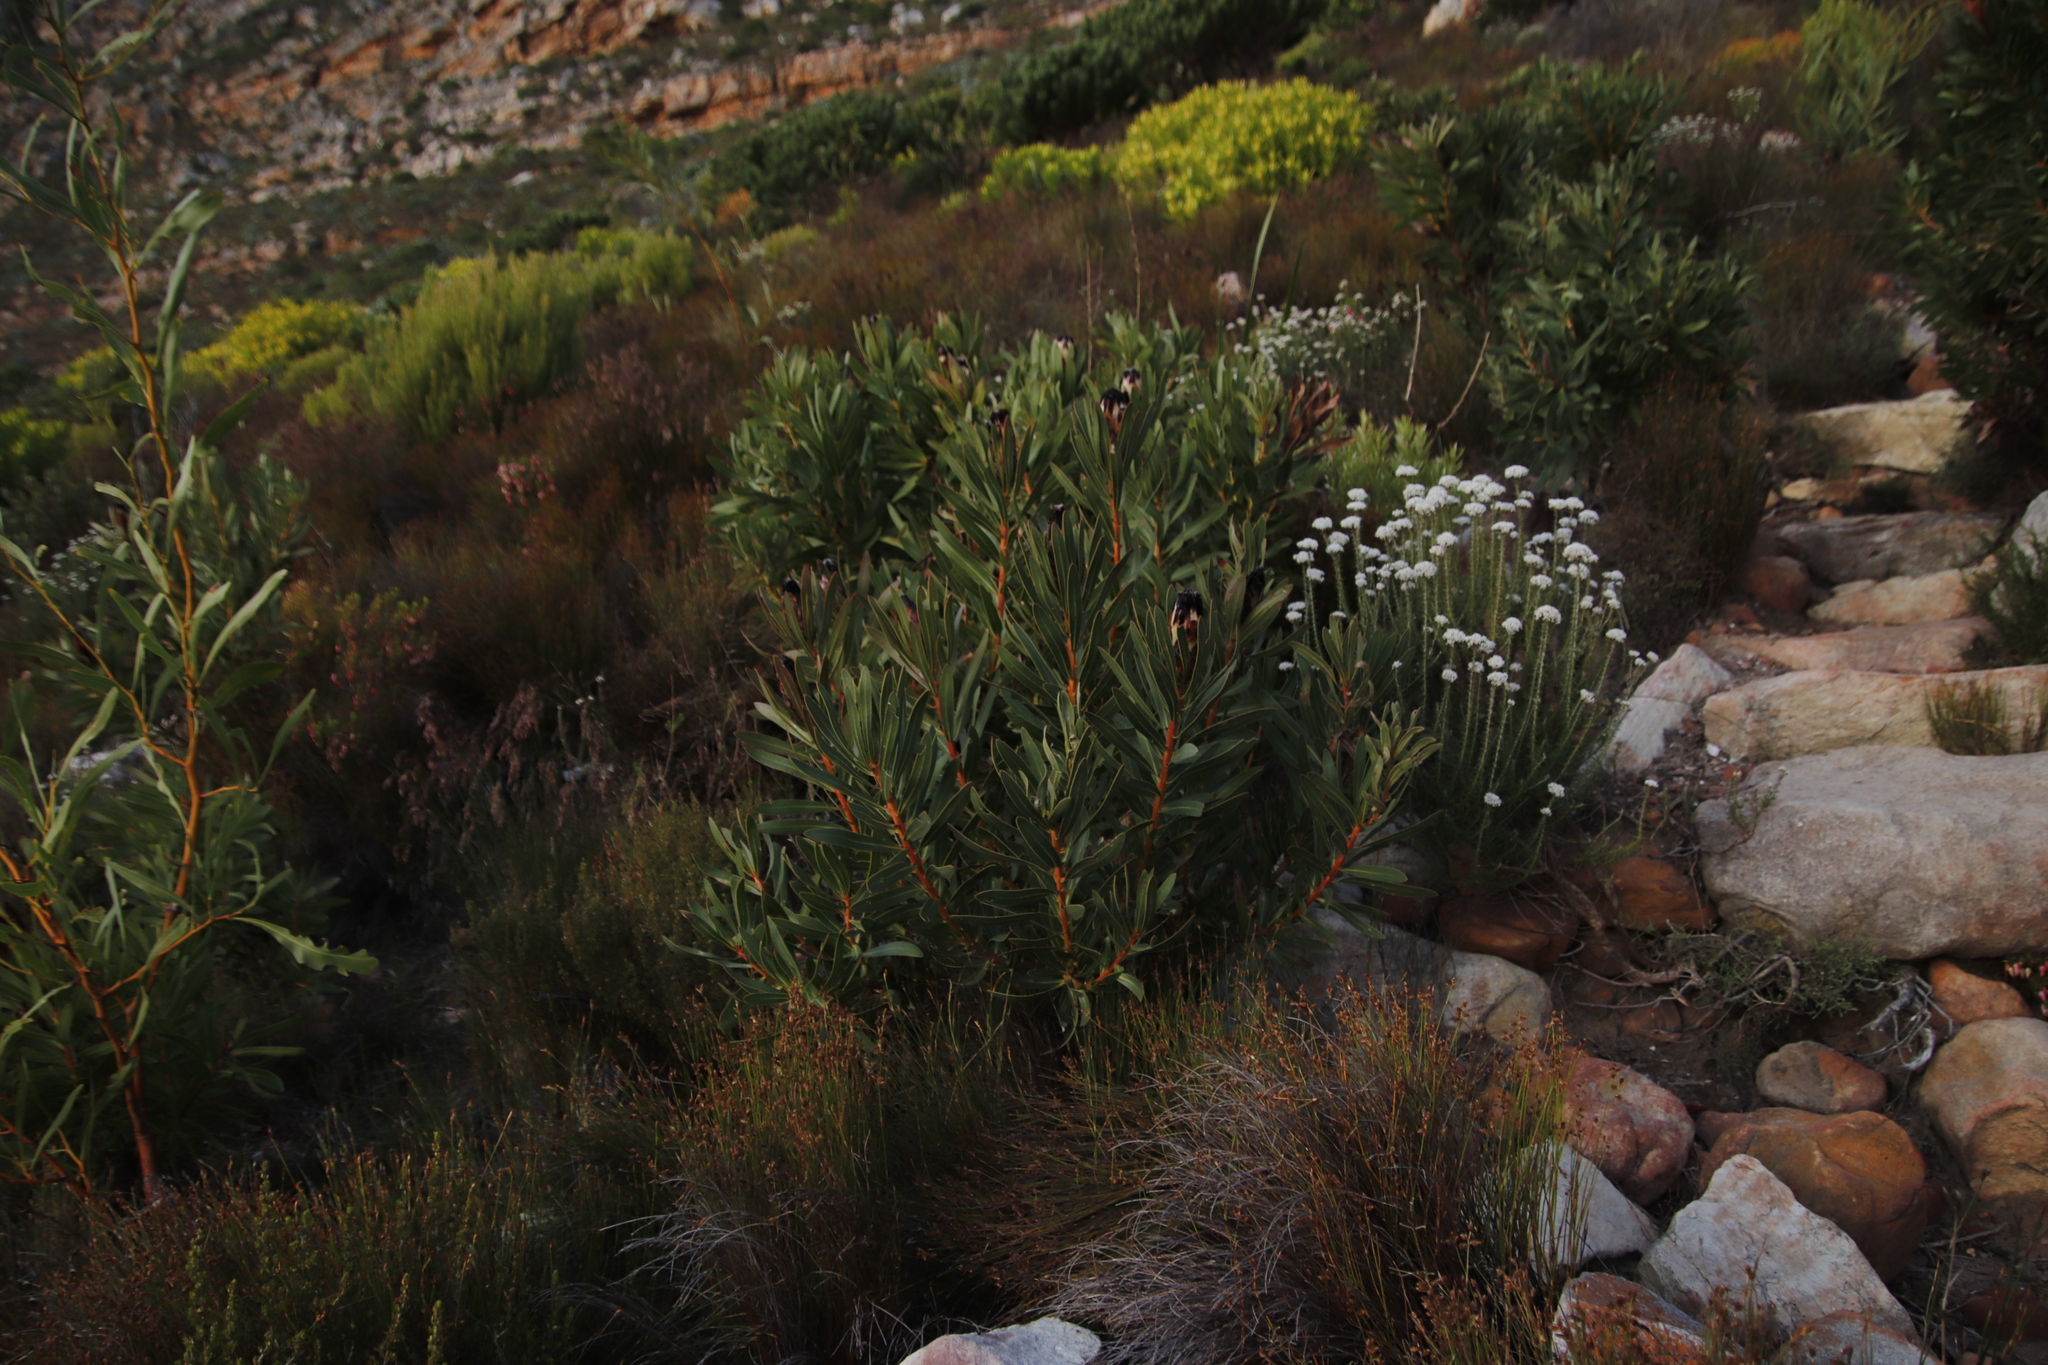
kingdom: Plantae
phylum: Tracheophyta
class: Magnoliopsida
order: Proteales
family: Proteaceae
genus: Protea
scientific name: Protea lepidocarpodendron
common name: Black-bearded protea
